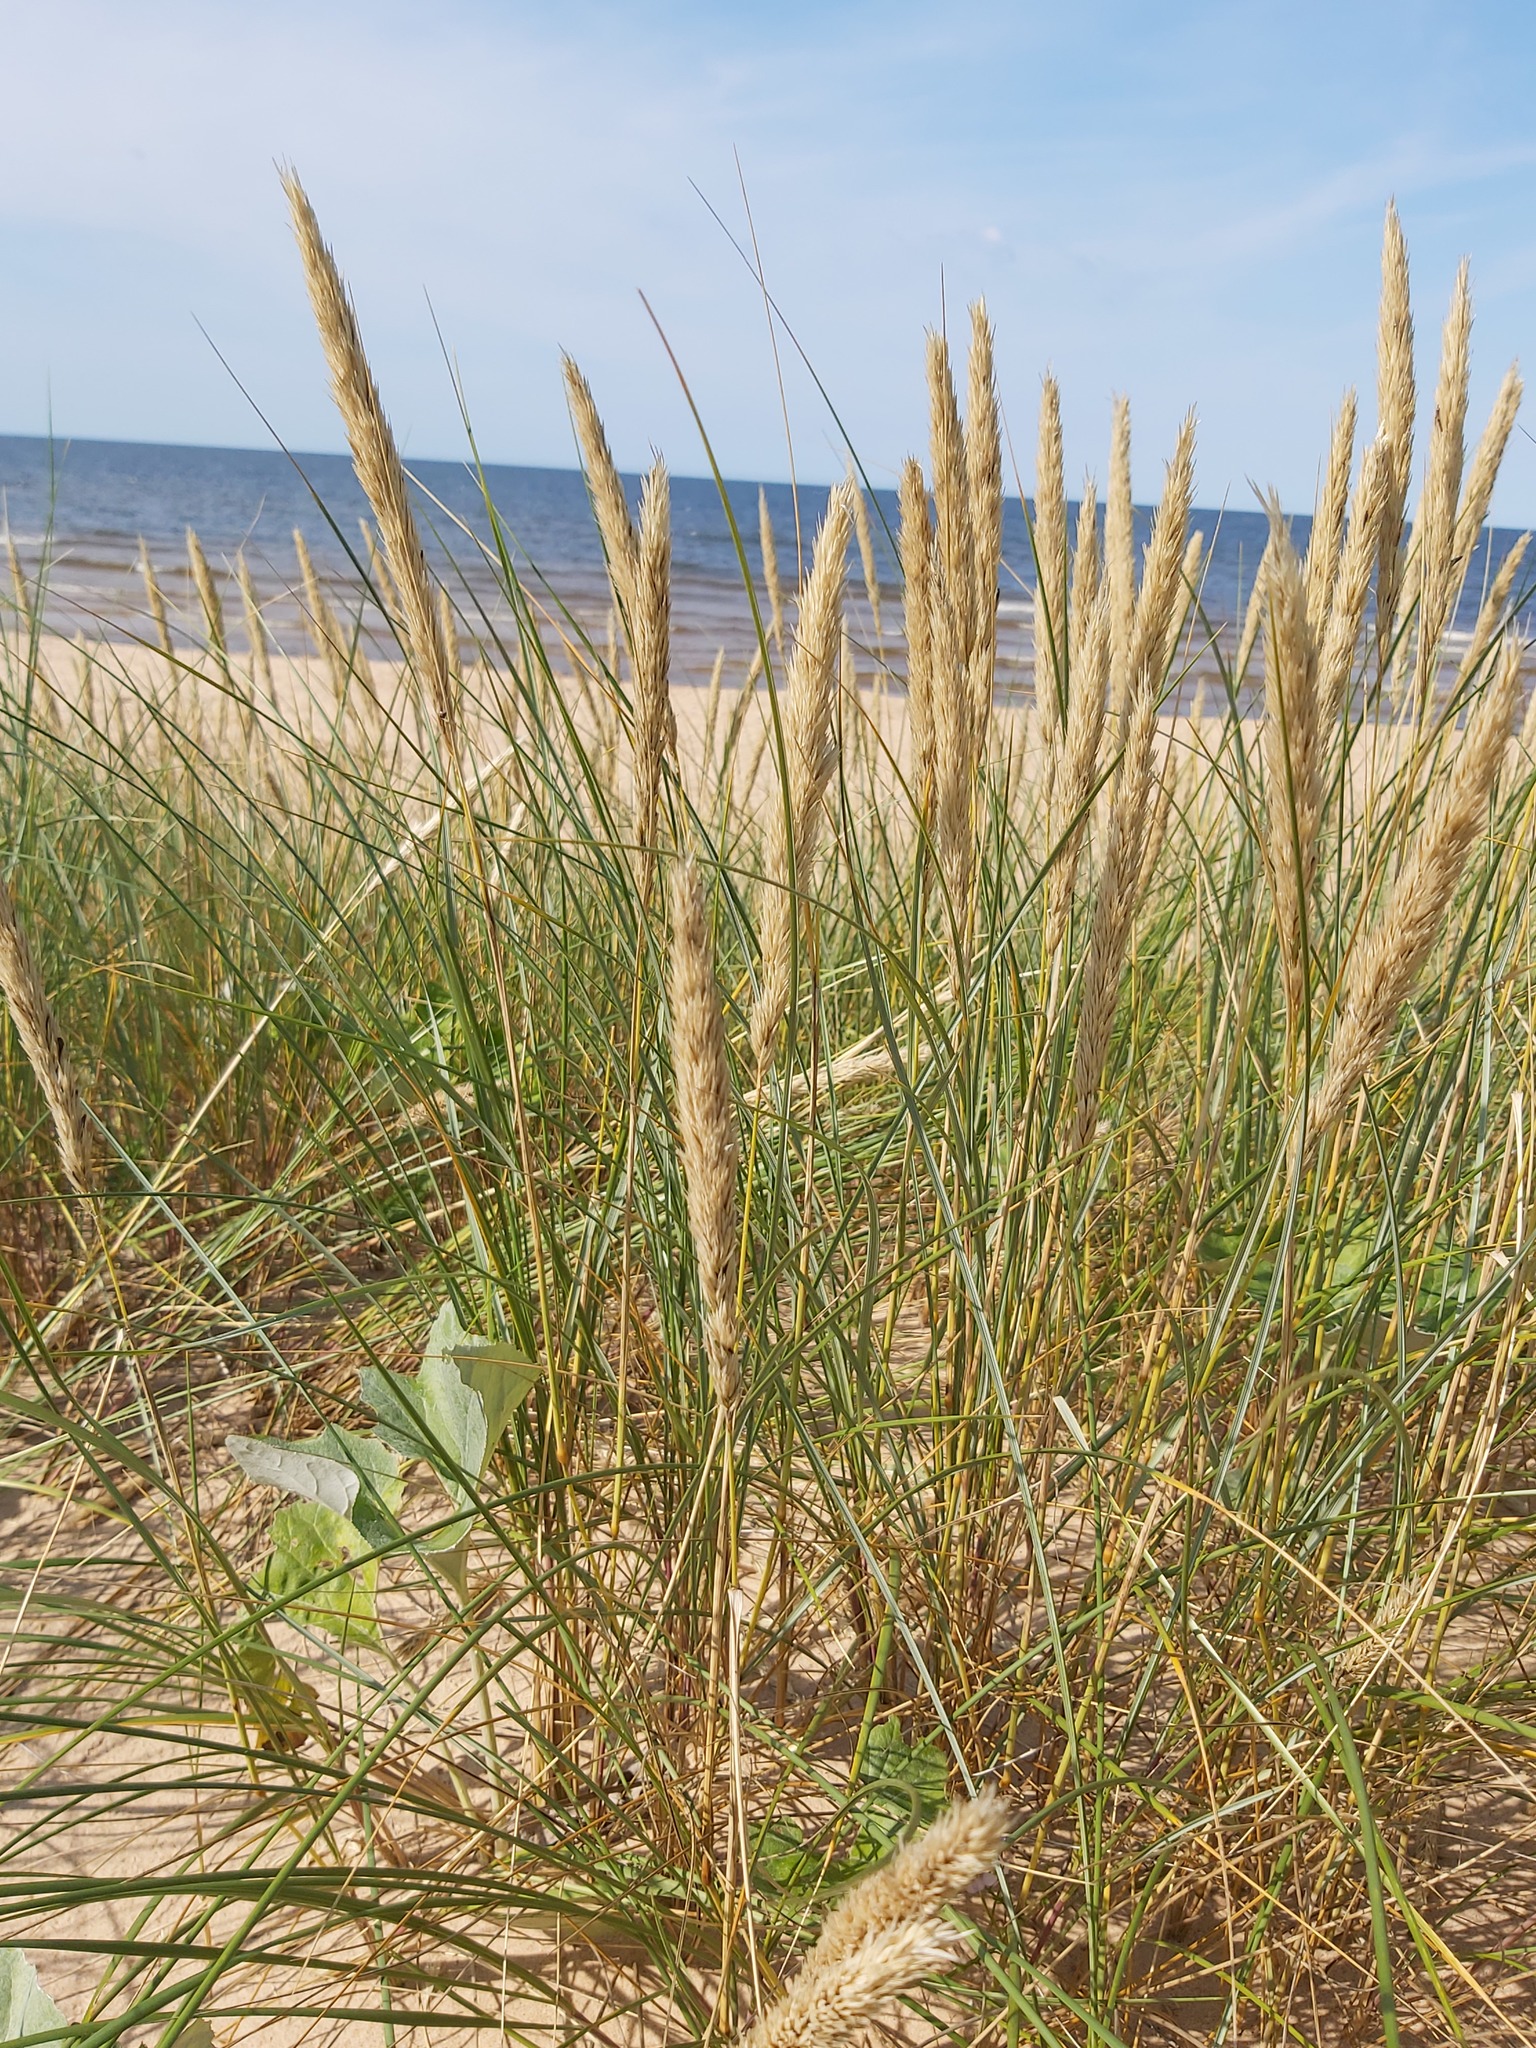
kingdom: Plantae
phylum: Tracheophyta
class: Liliopsida
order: Poales
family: Poaceae
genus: Calamagrostis
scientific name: Calamagrostis arenaria
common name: European beachgrass
